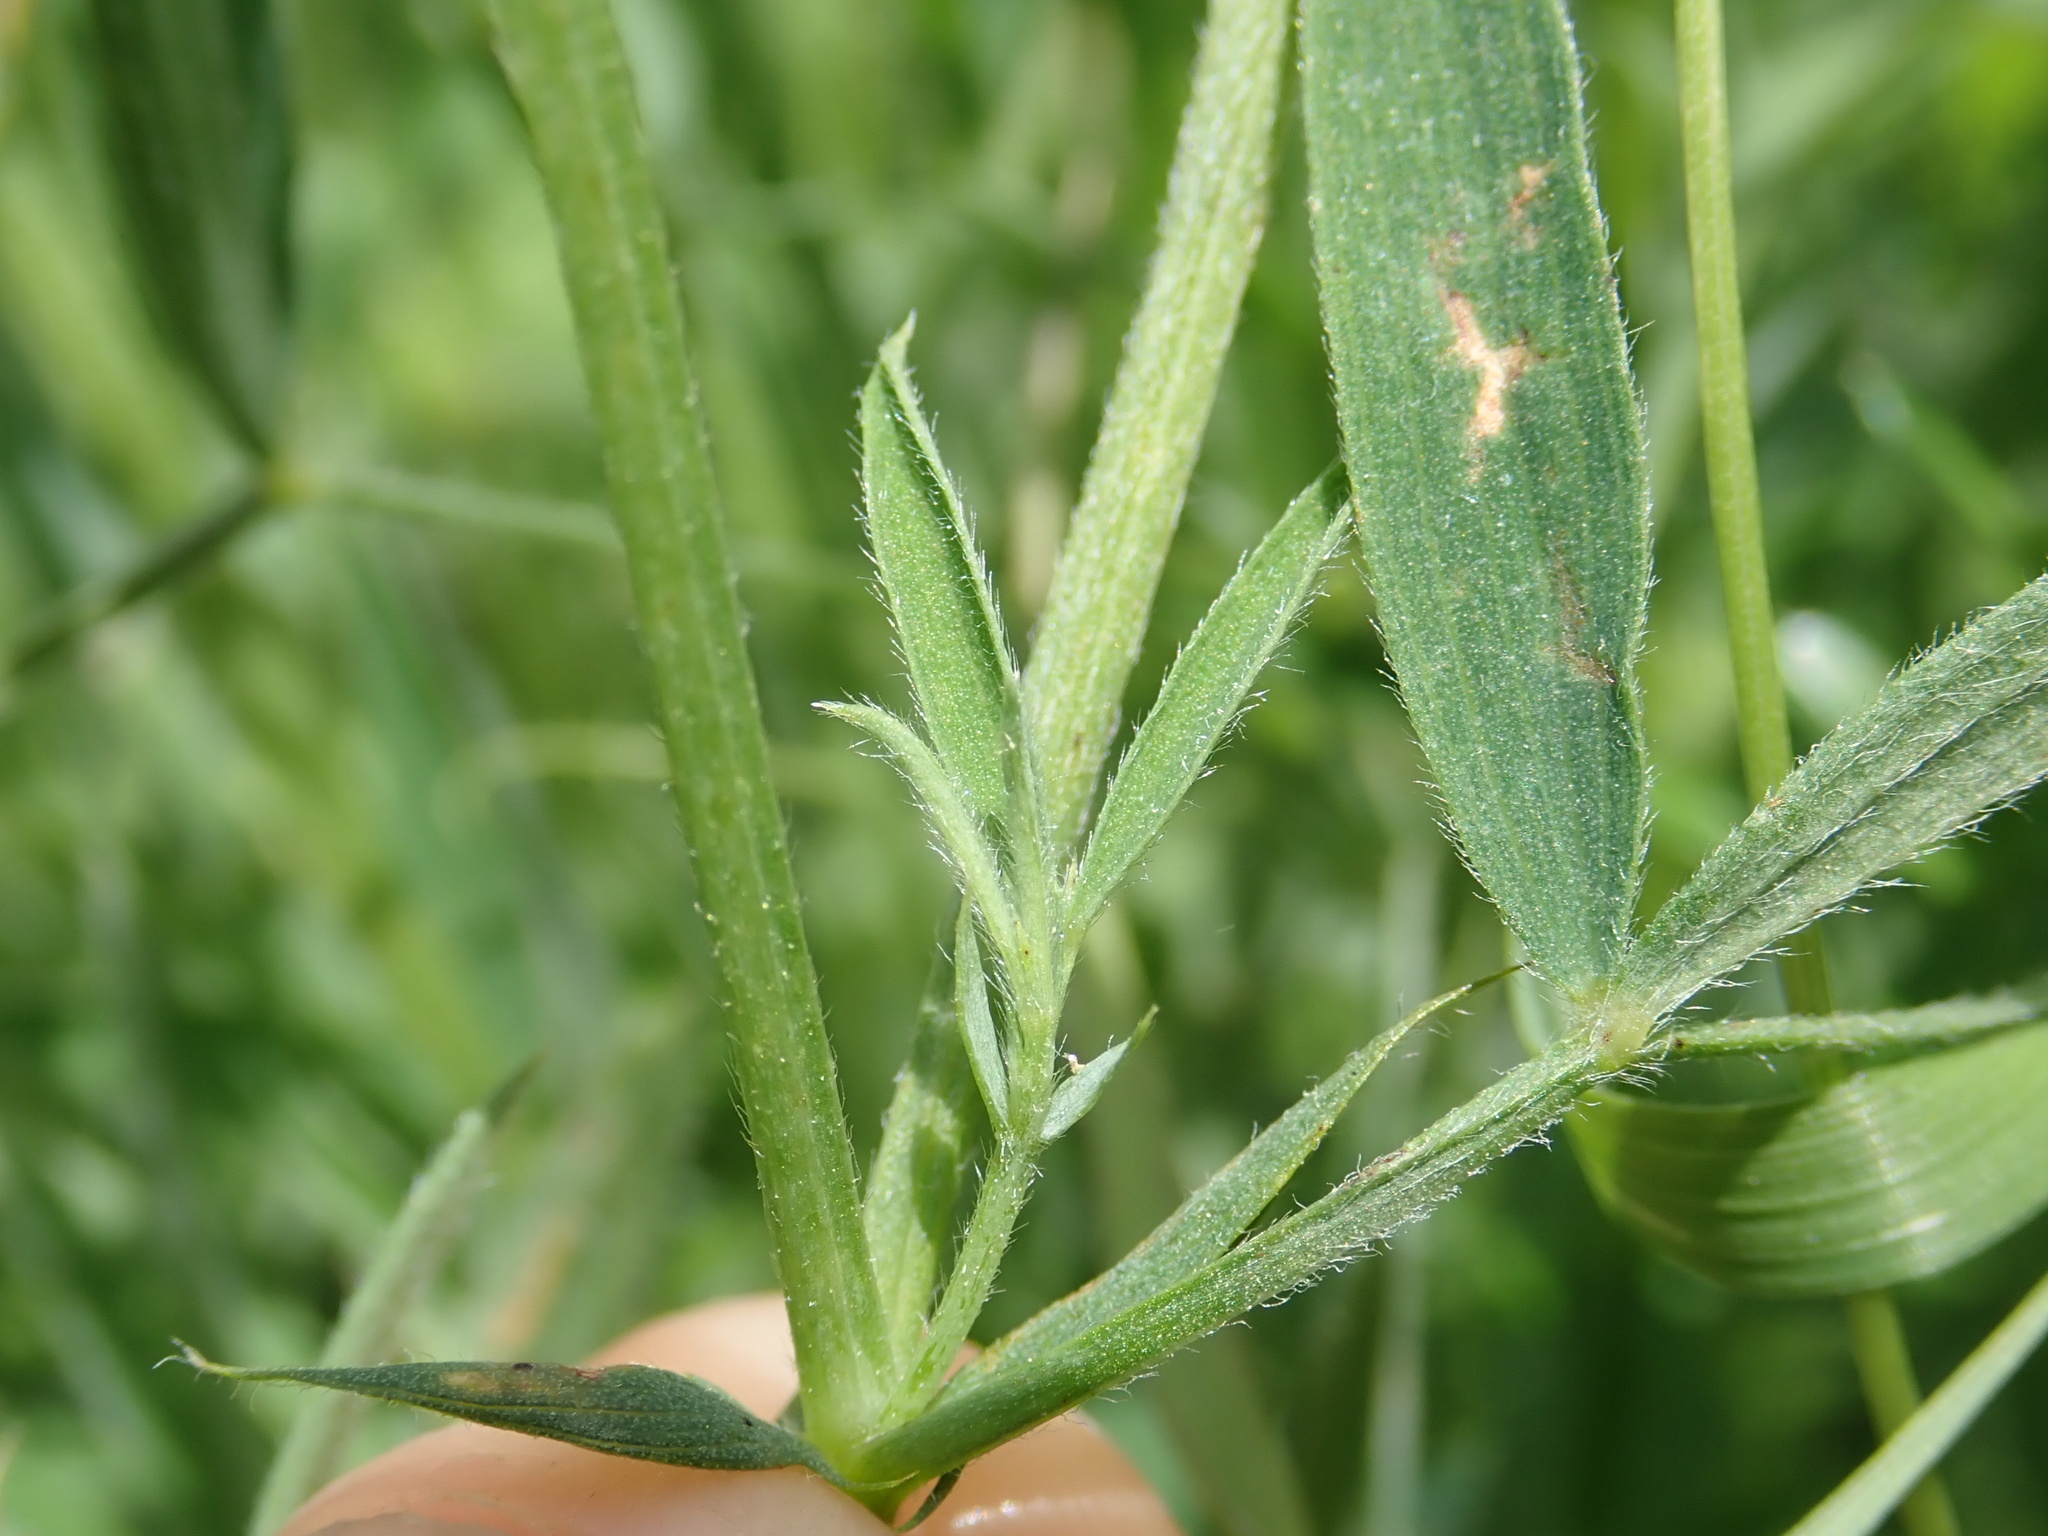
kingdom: Plantae
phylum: Tracheophyta
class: Magnoliopsida
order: Fabales
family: Fabaceae
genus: Lathyrus
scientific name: Lathyrus pratensis
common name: Meadow vetchling
